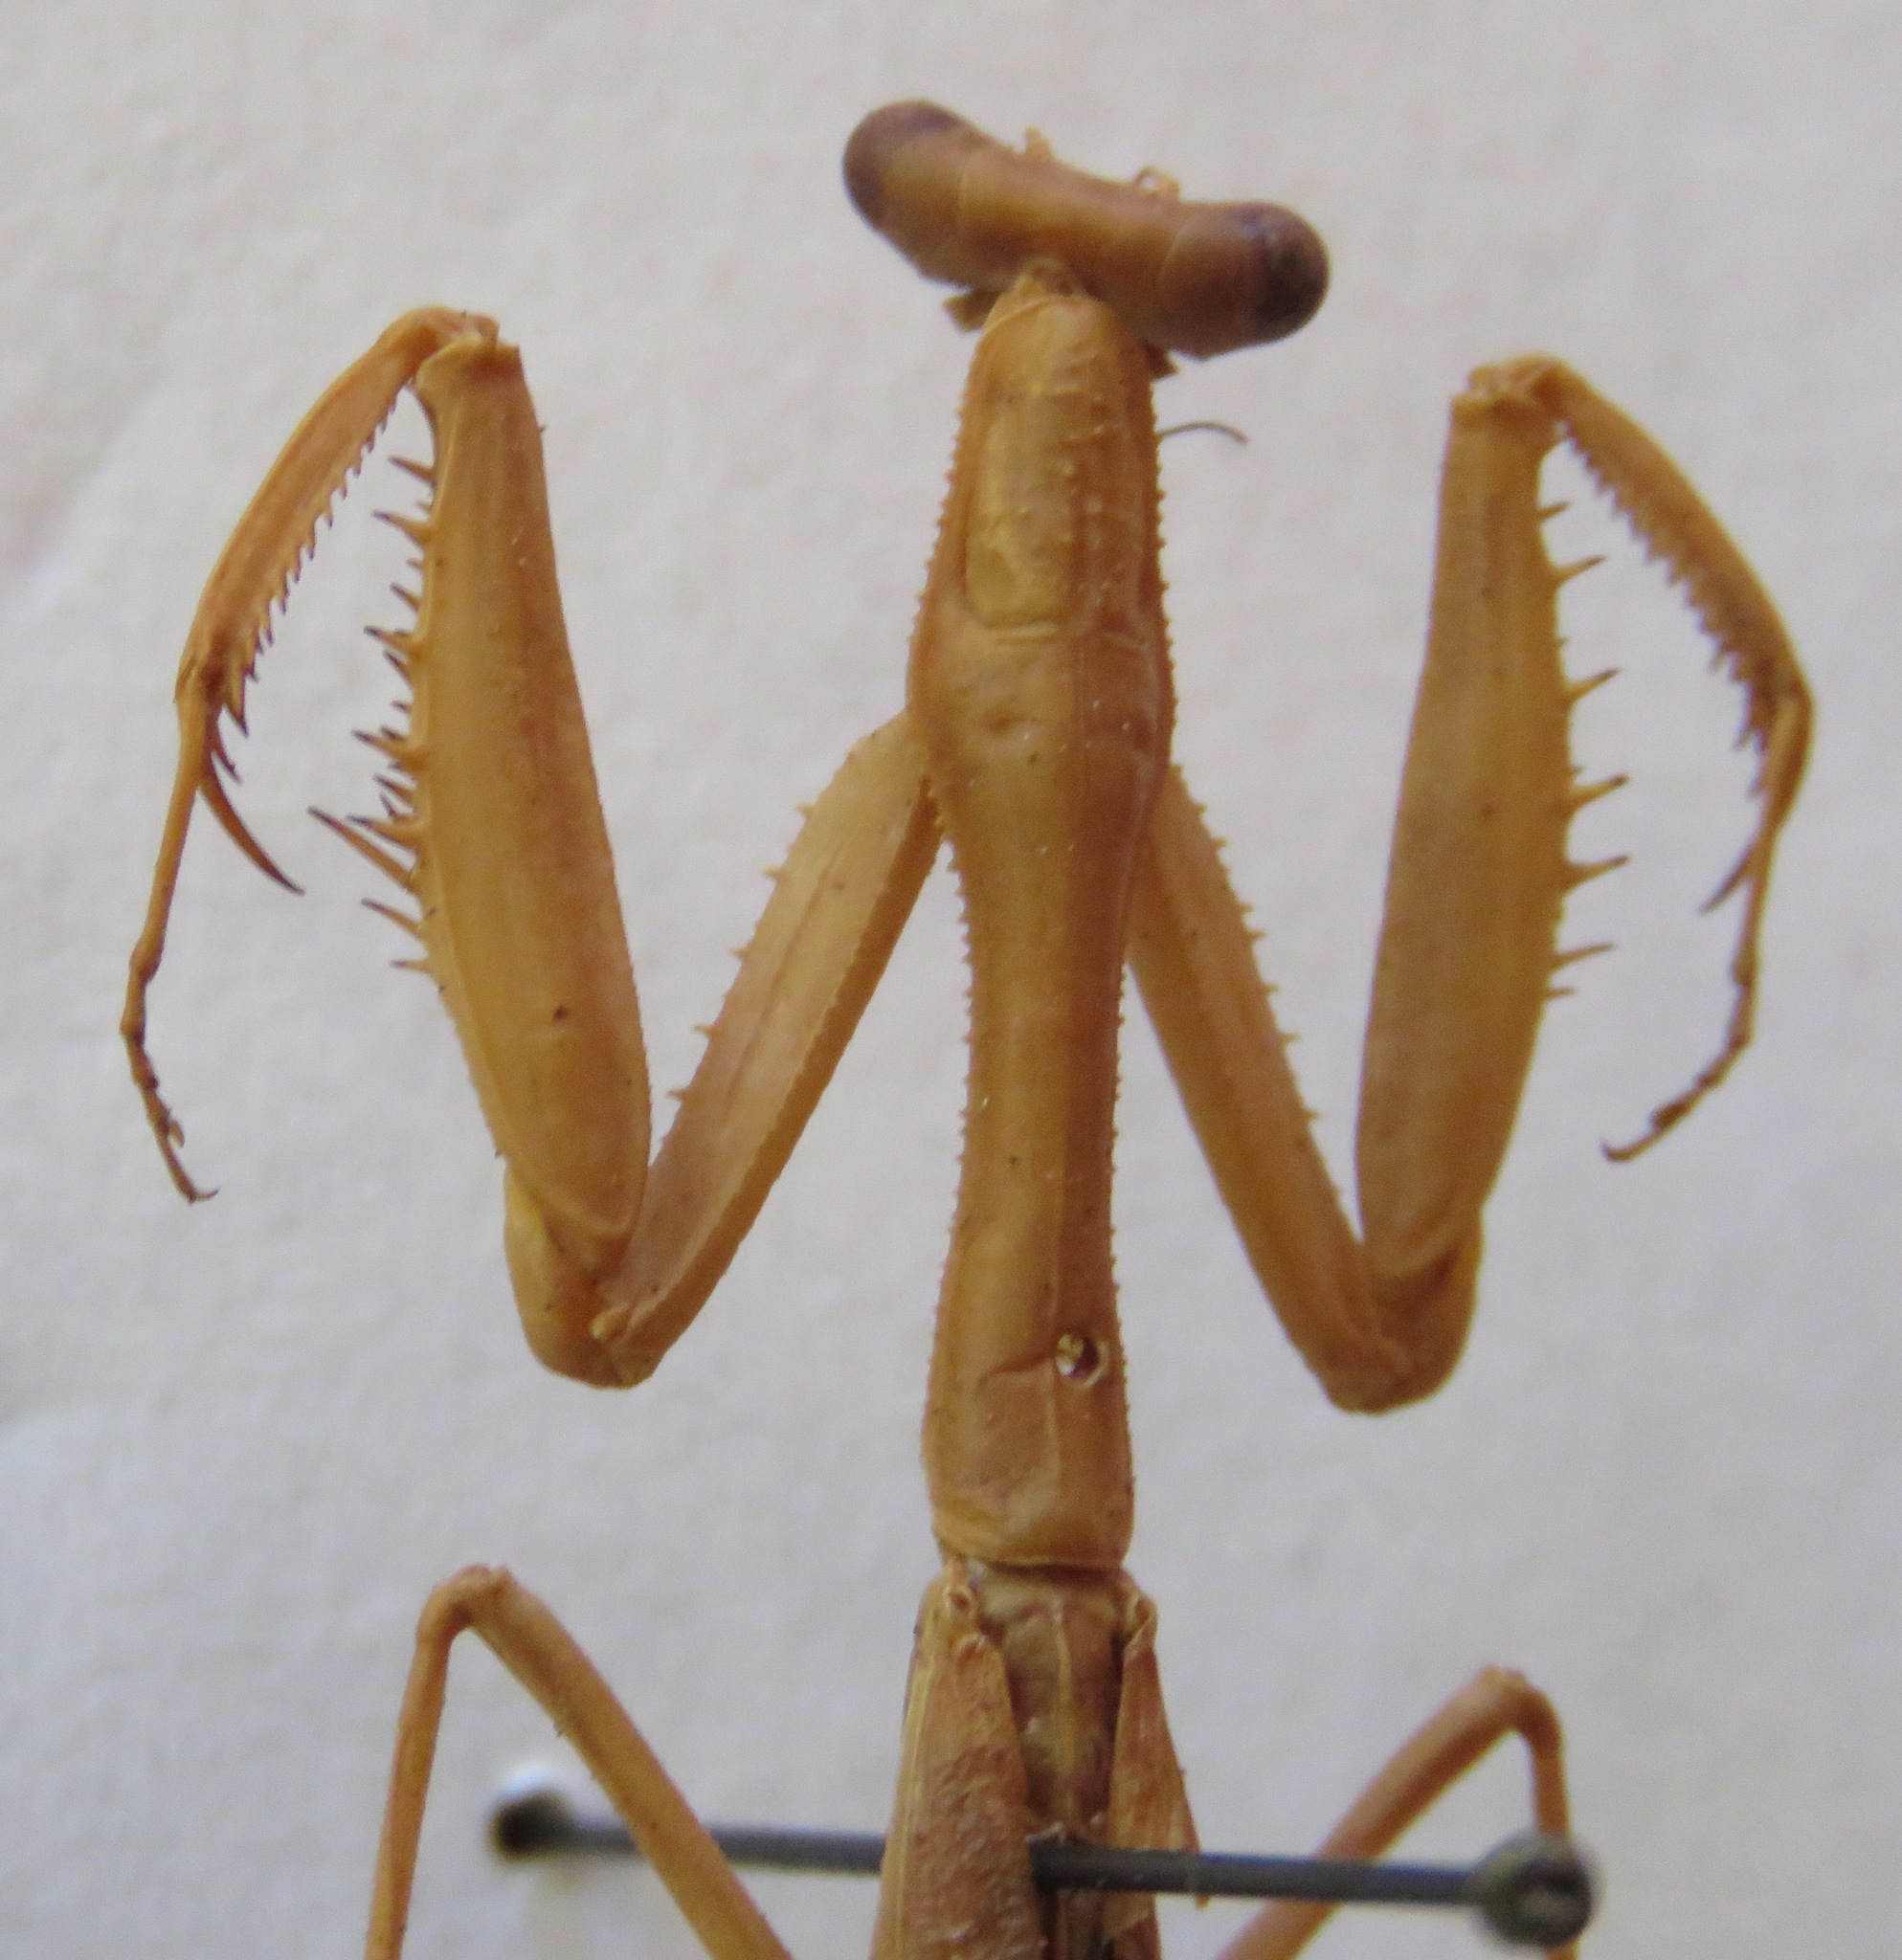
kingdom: Animalia
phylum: Arthropoda
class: Insecta
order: Mantodea
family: Mantidae
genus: Stagmomantis
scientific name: Stagmomantis nahua
